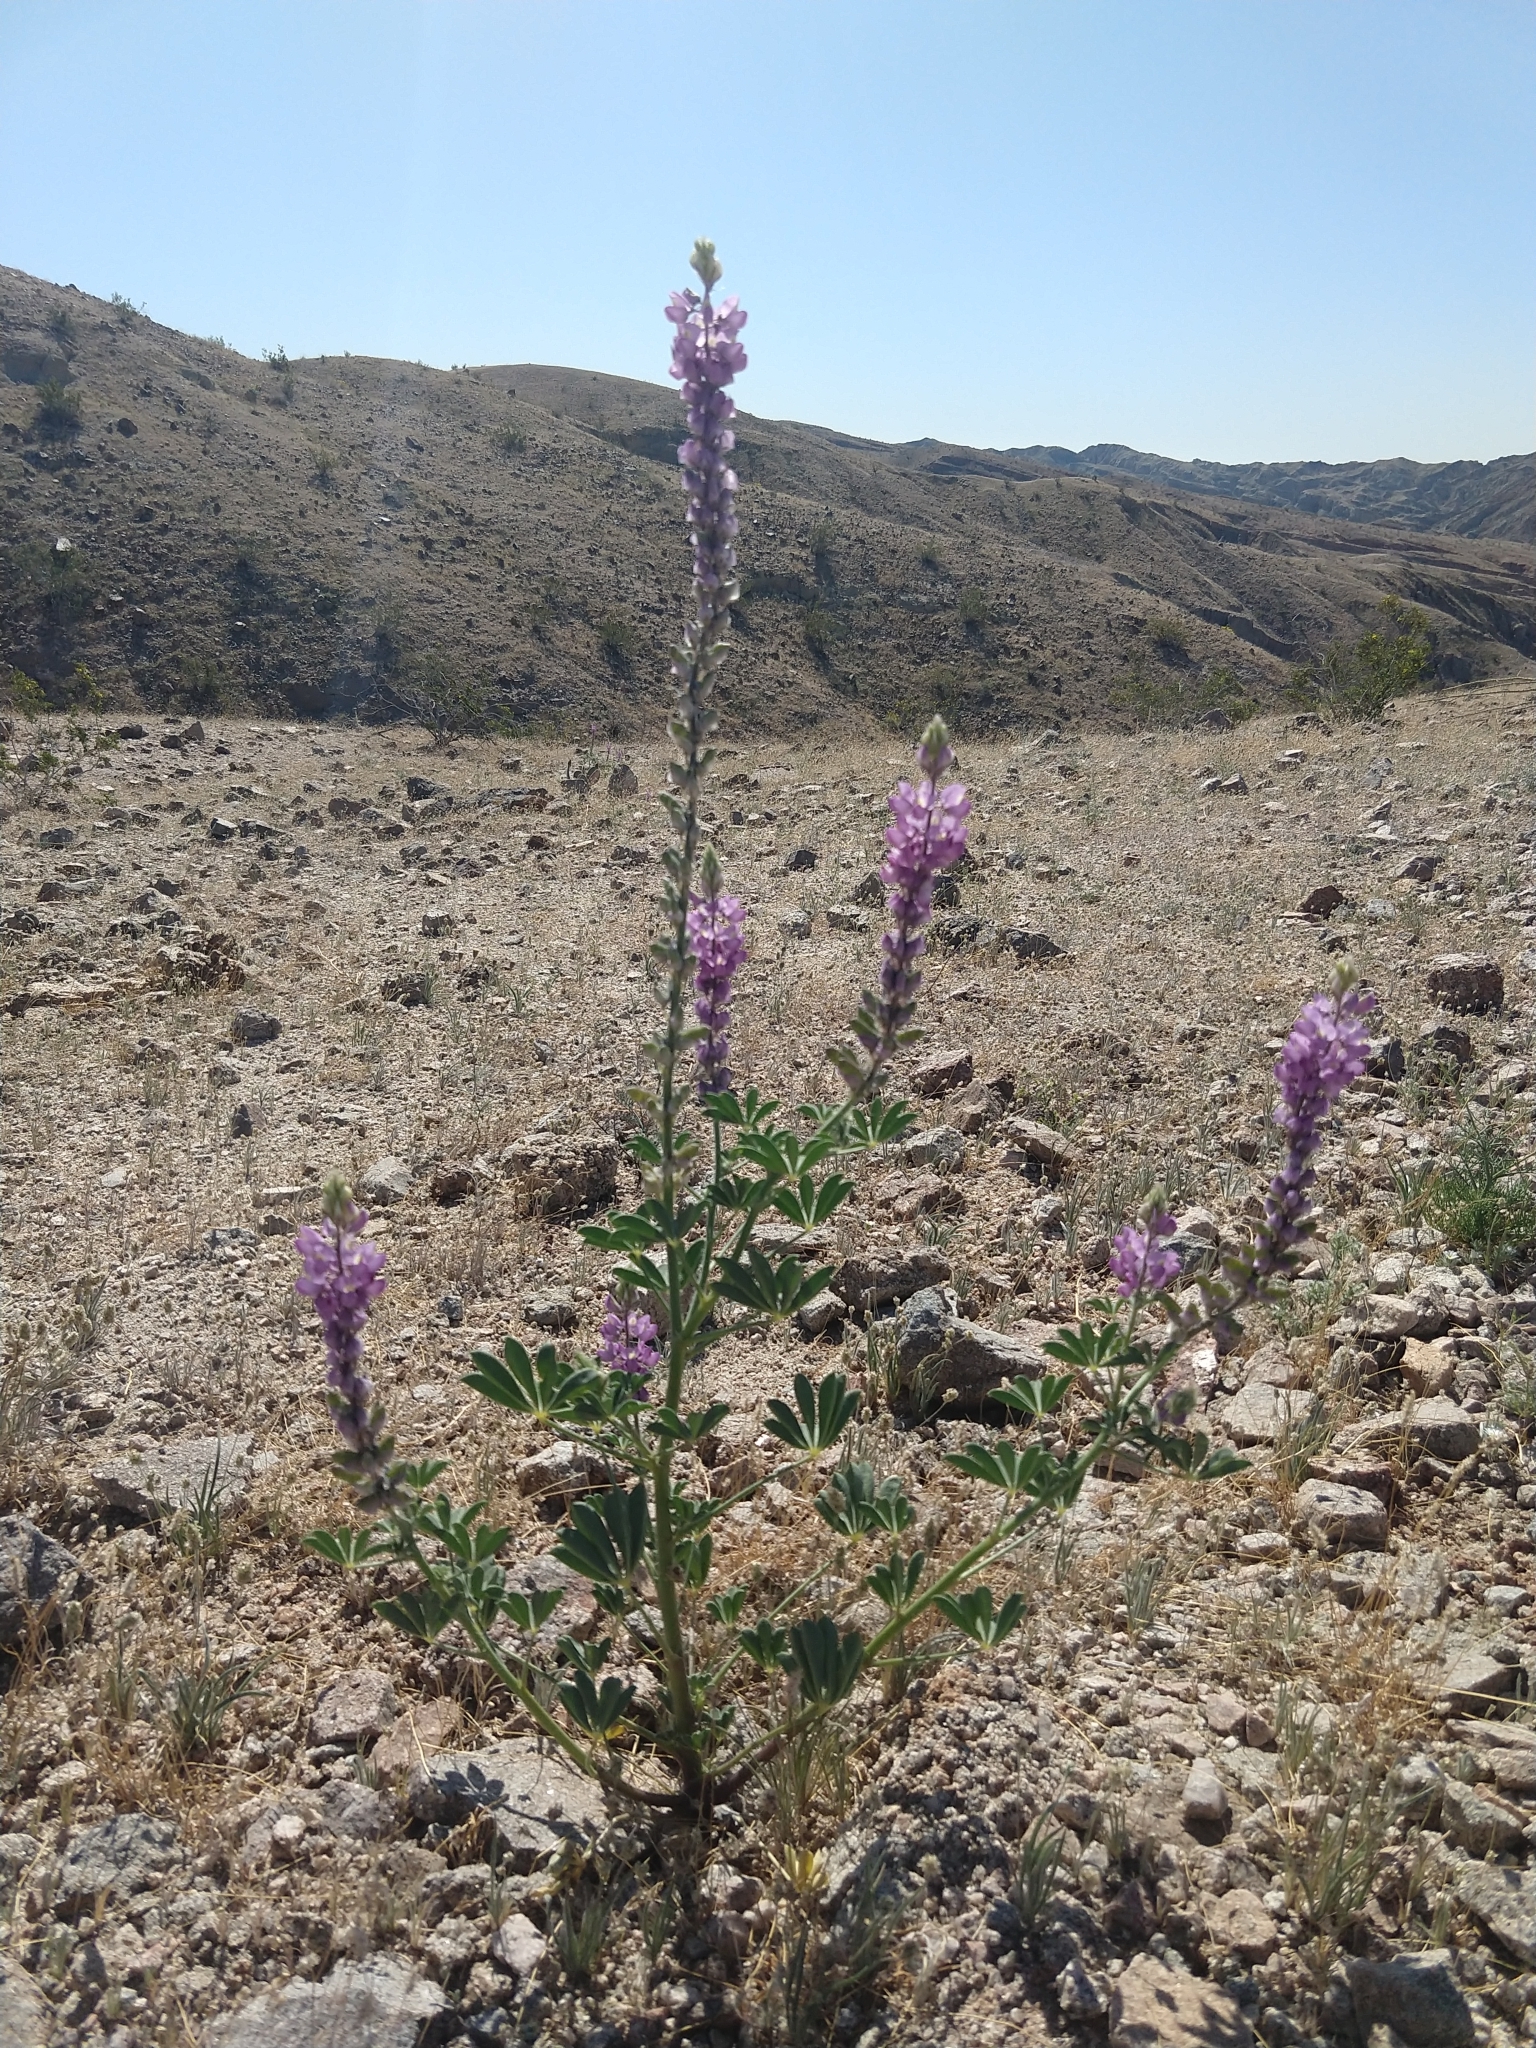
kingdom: Plantae
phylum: Tracheophyta
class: Magnoliopsida
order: Fabales
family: Fabaceae
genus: Lupinus
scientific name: Lupinus arizonicus
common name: Arizona lupine
